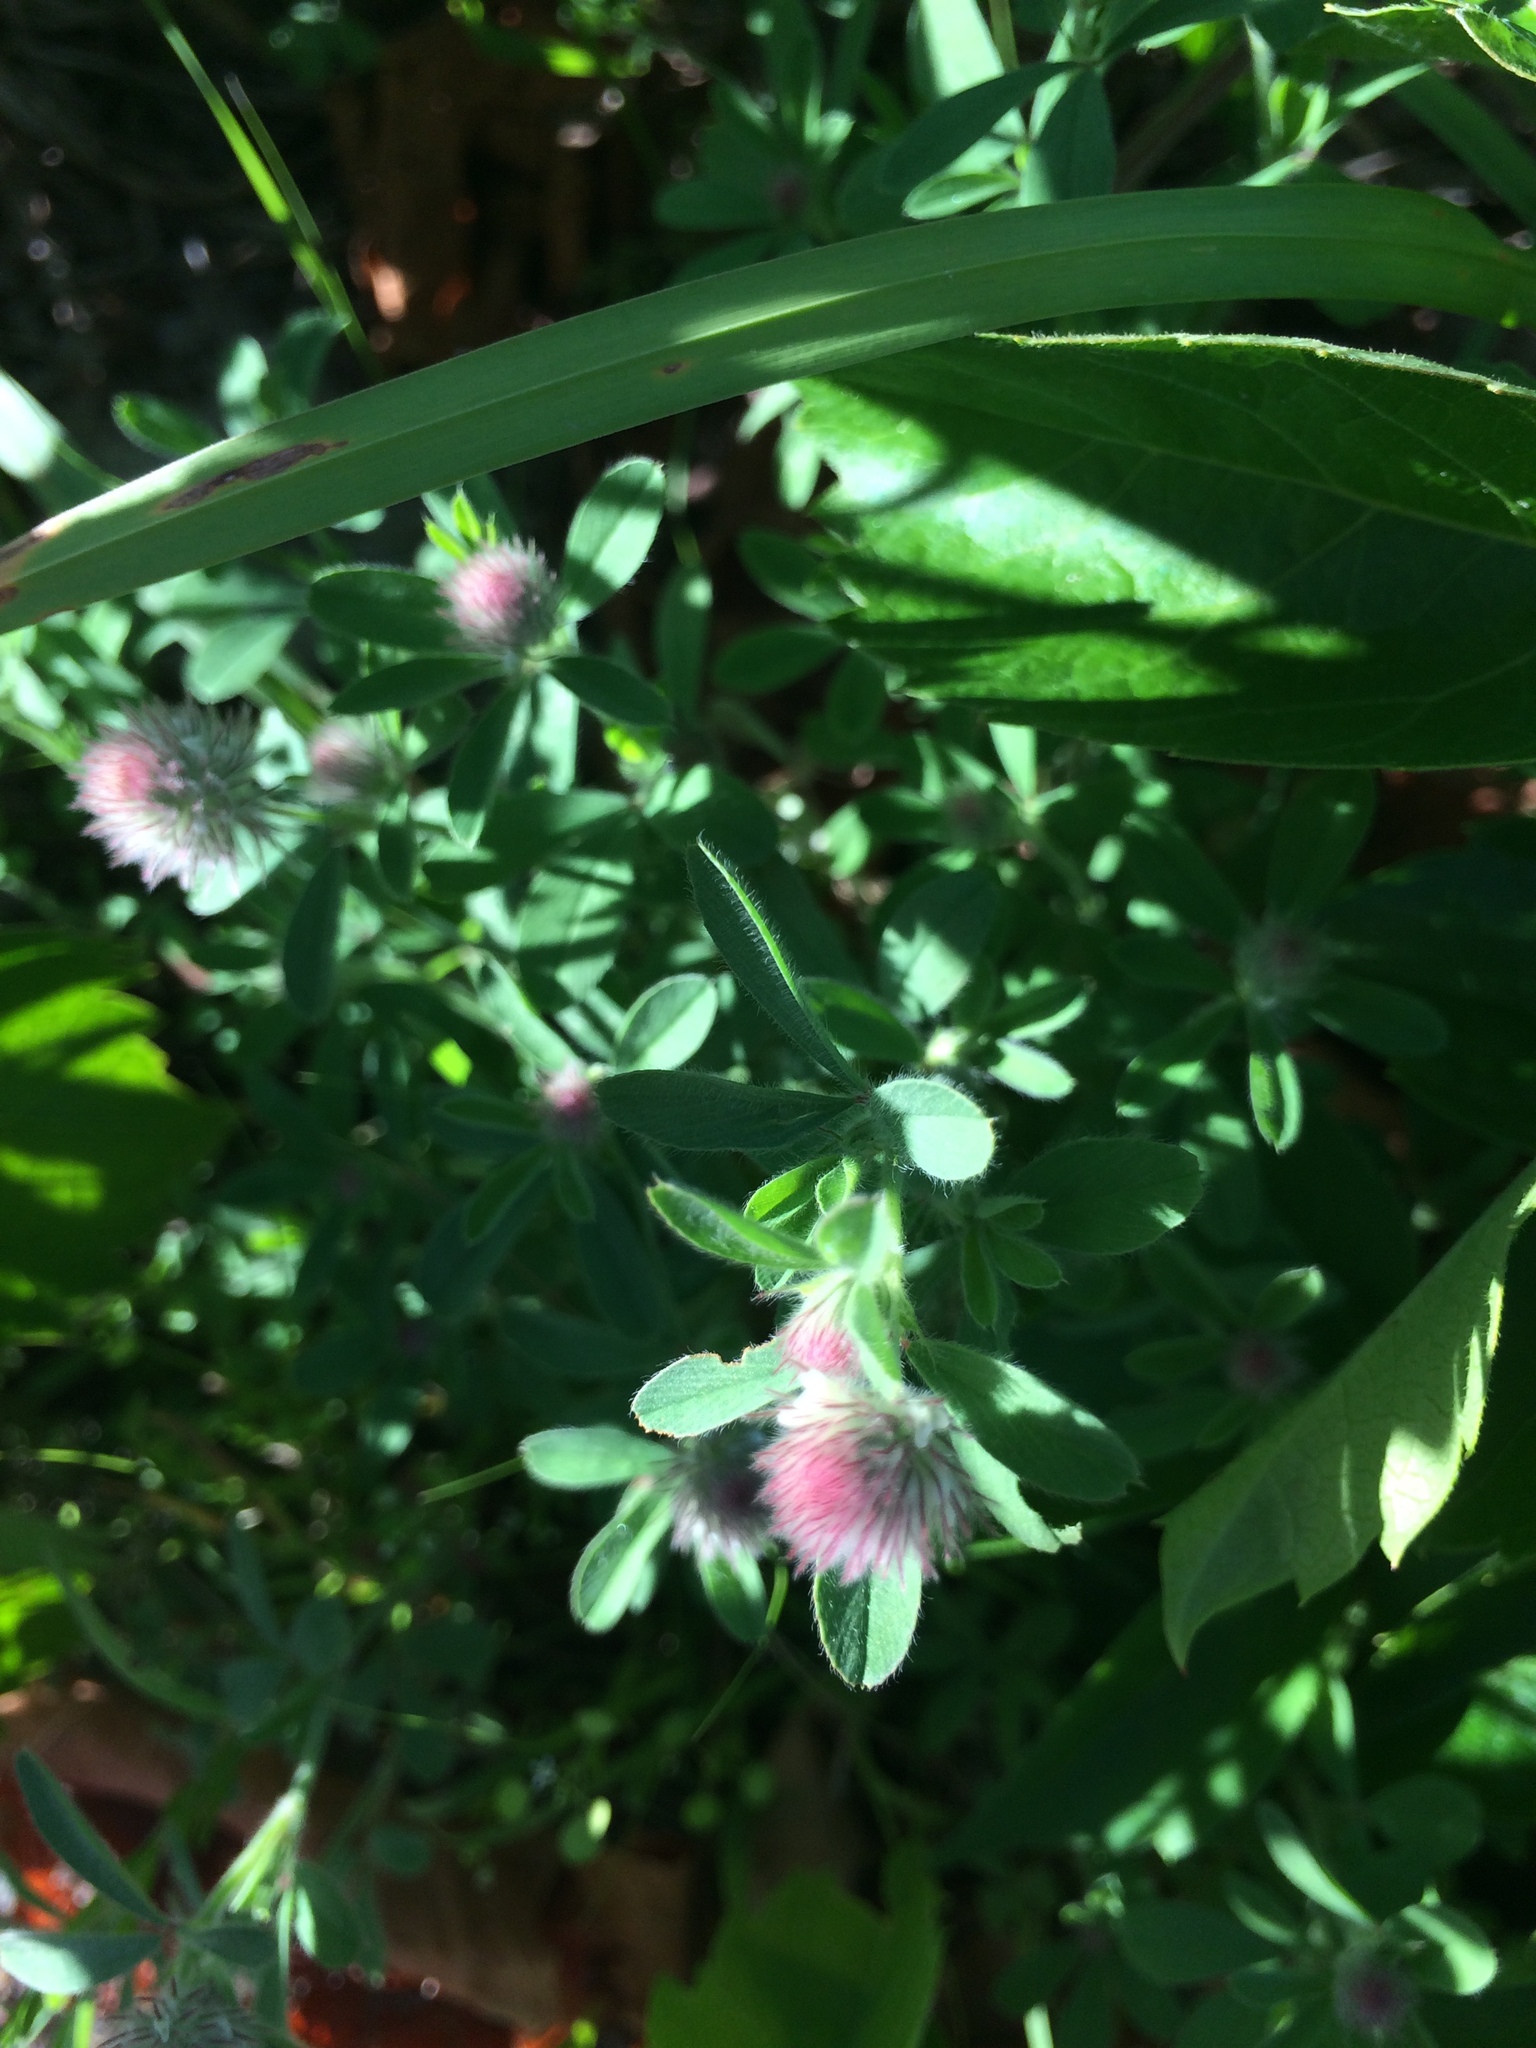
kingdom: Plantae
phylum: Tracheophyta
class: Magnoliopsida
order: Fabales
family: Fabaceae
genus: Trifolium
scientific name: Trifolium arvense
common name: Hare's-foot clover
